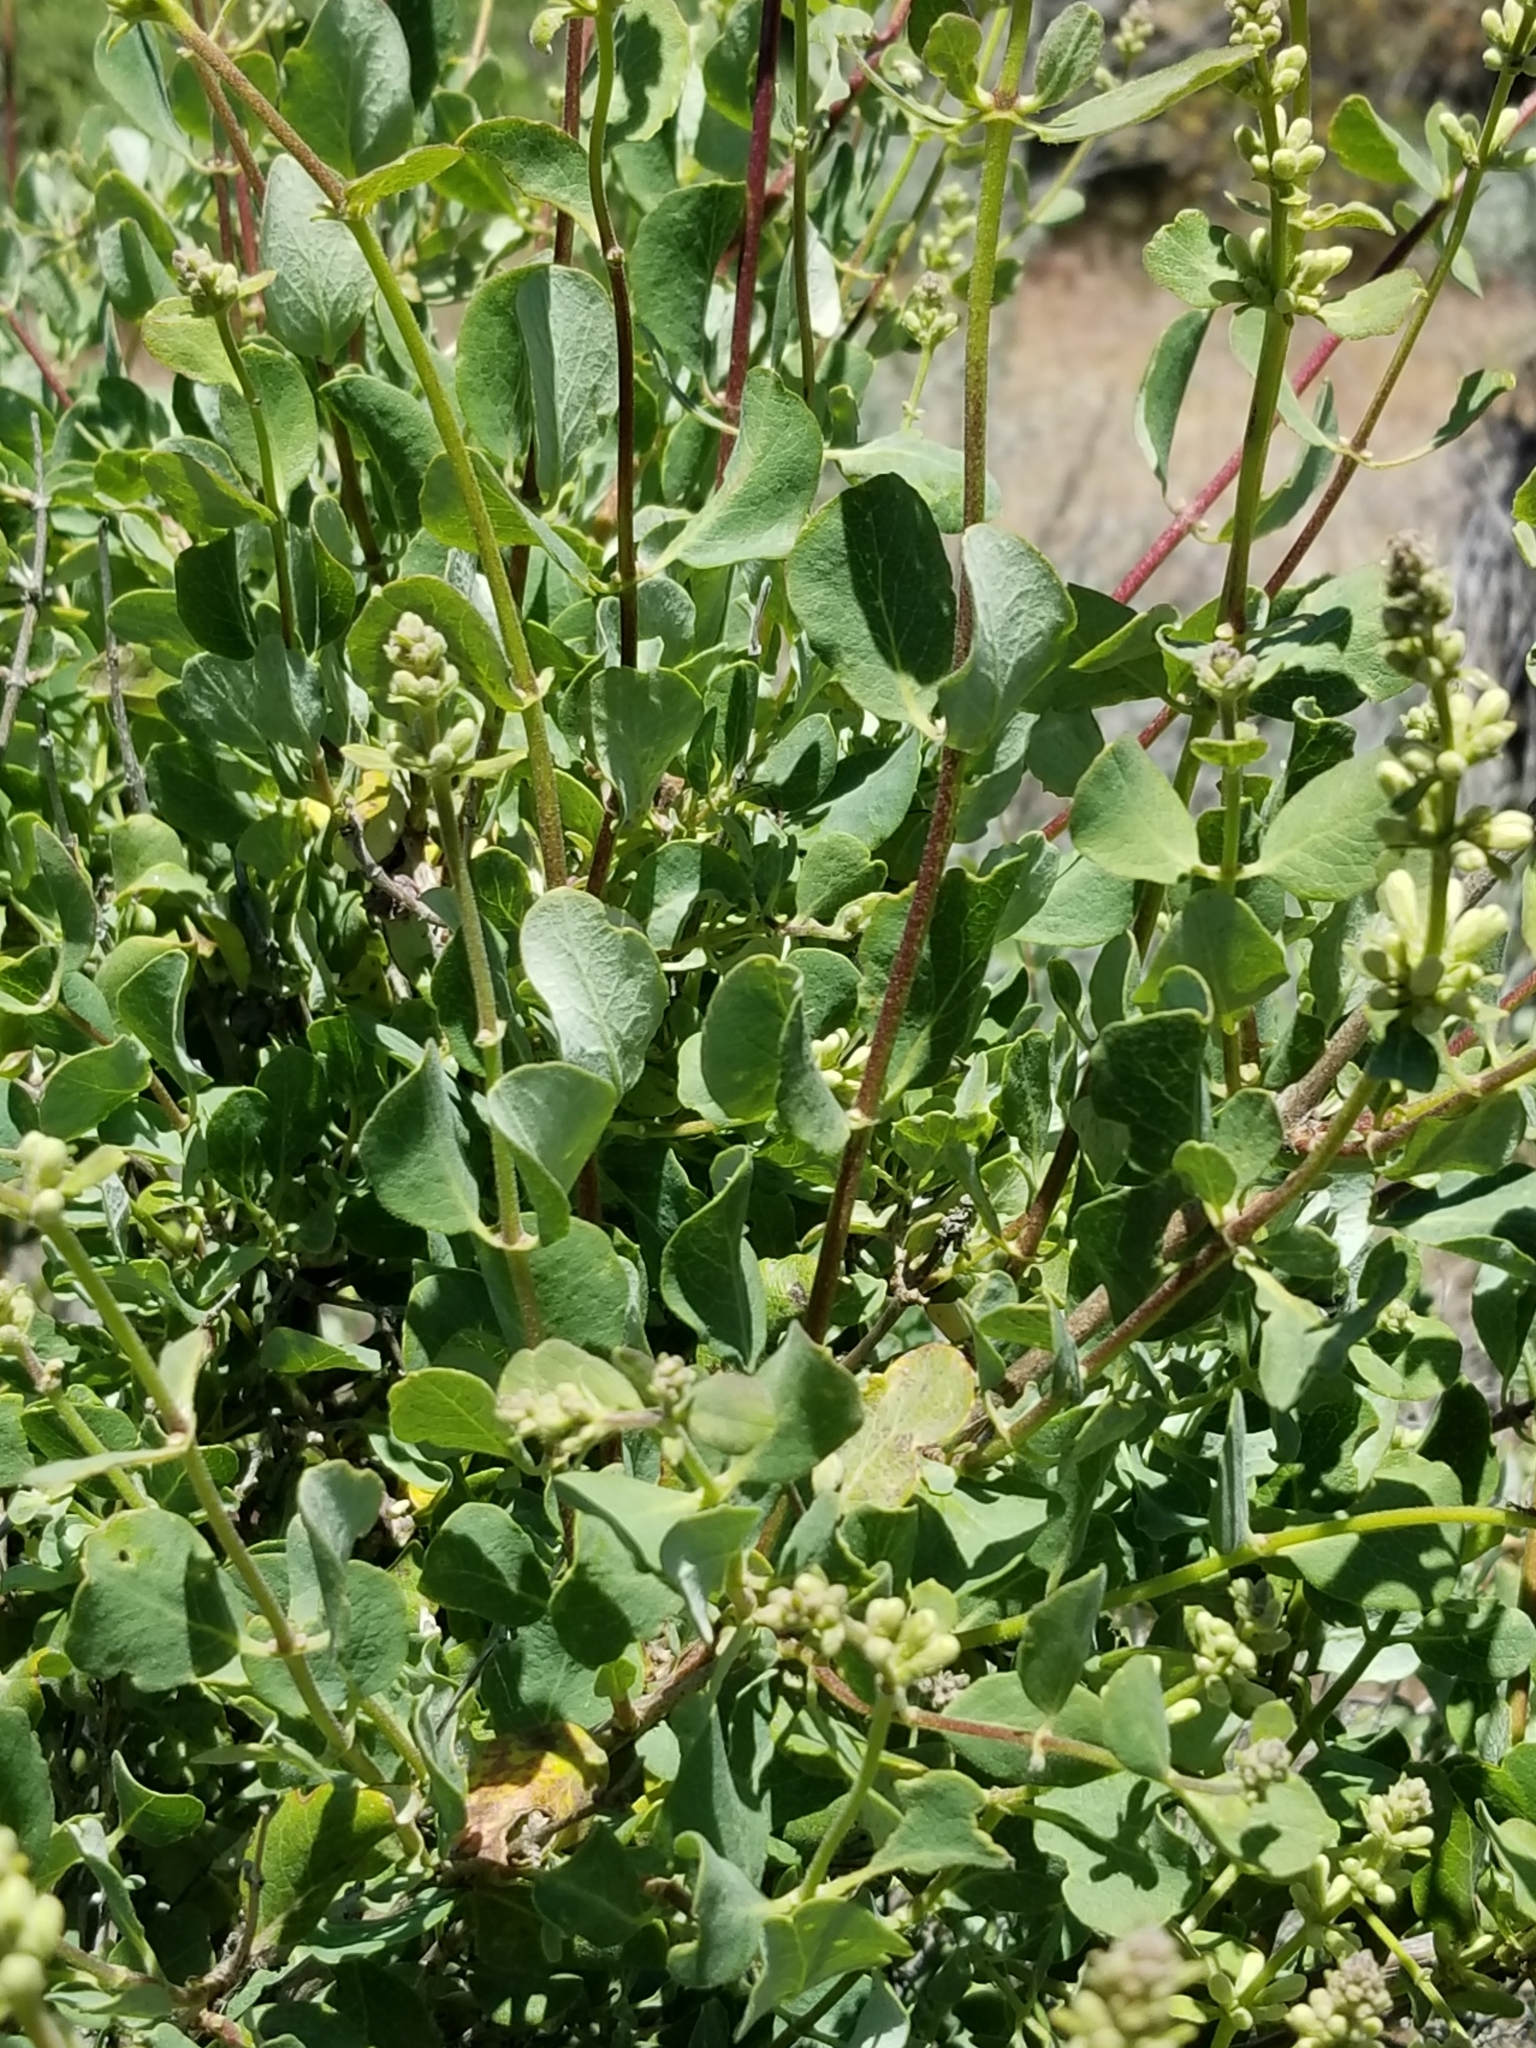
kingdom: Plantae
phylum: Tracheophyta
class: Magnoliopsida
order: Dipsacales
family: Caprifoliaceae
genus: Lonicera
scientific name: Lonicera subspicata
